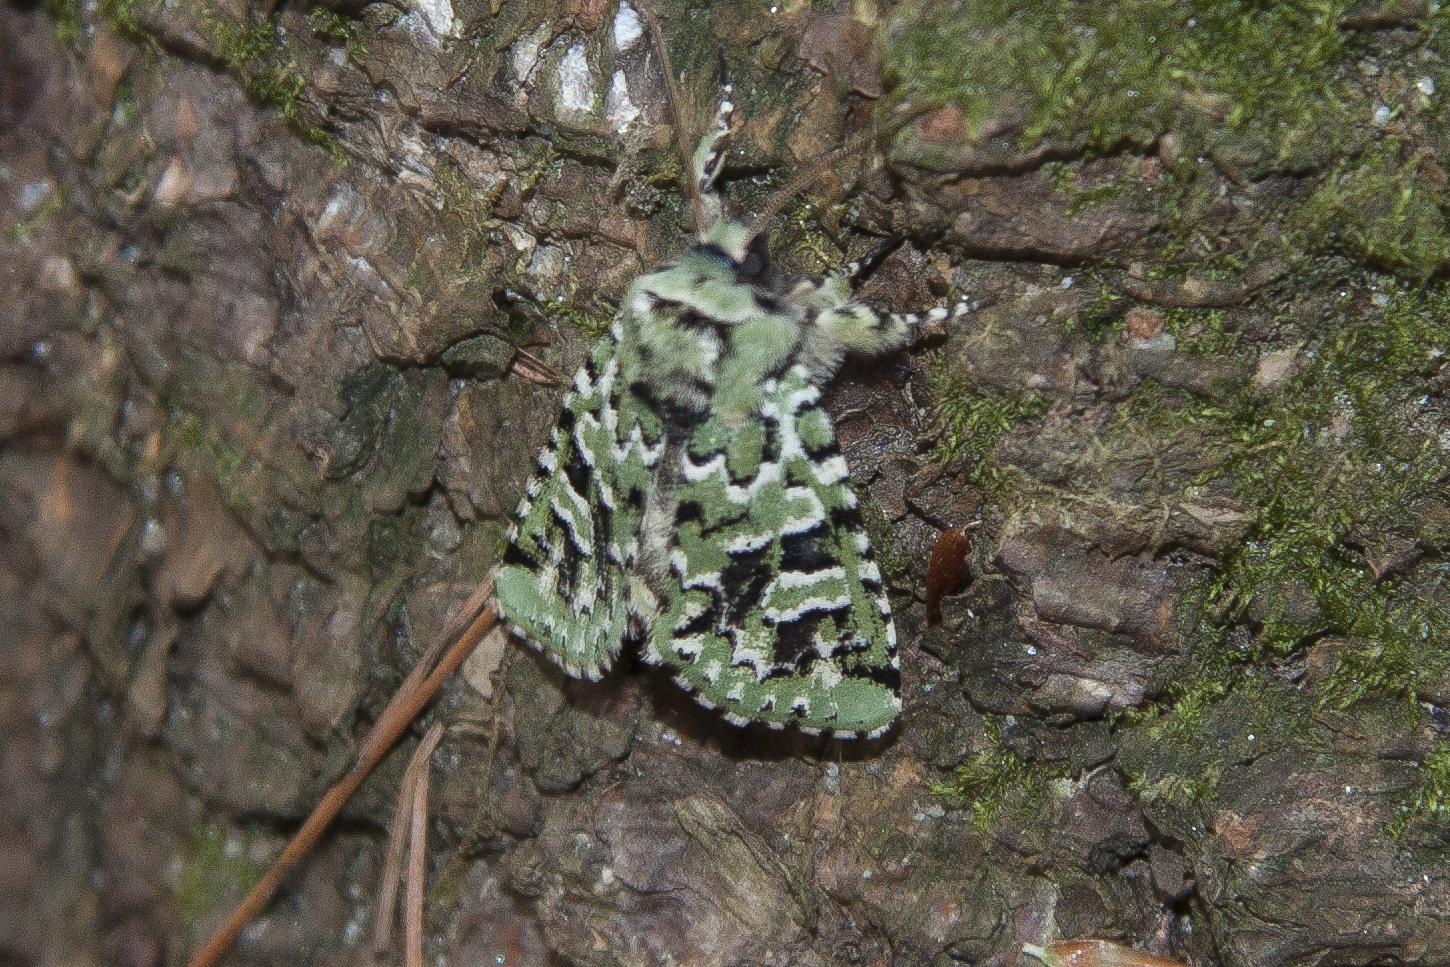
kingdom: Animalia
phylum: Arthropoda
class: Insecta
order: Lepidoptera
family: Noctuidae
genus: Feralia
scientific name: Feralia comstocki
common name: Comstock's sallow
